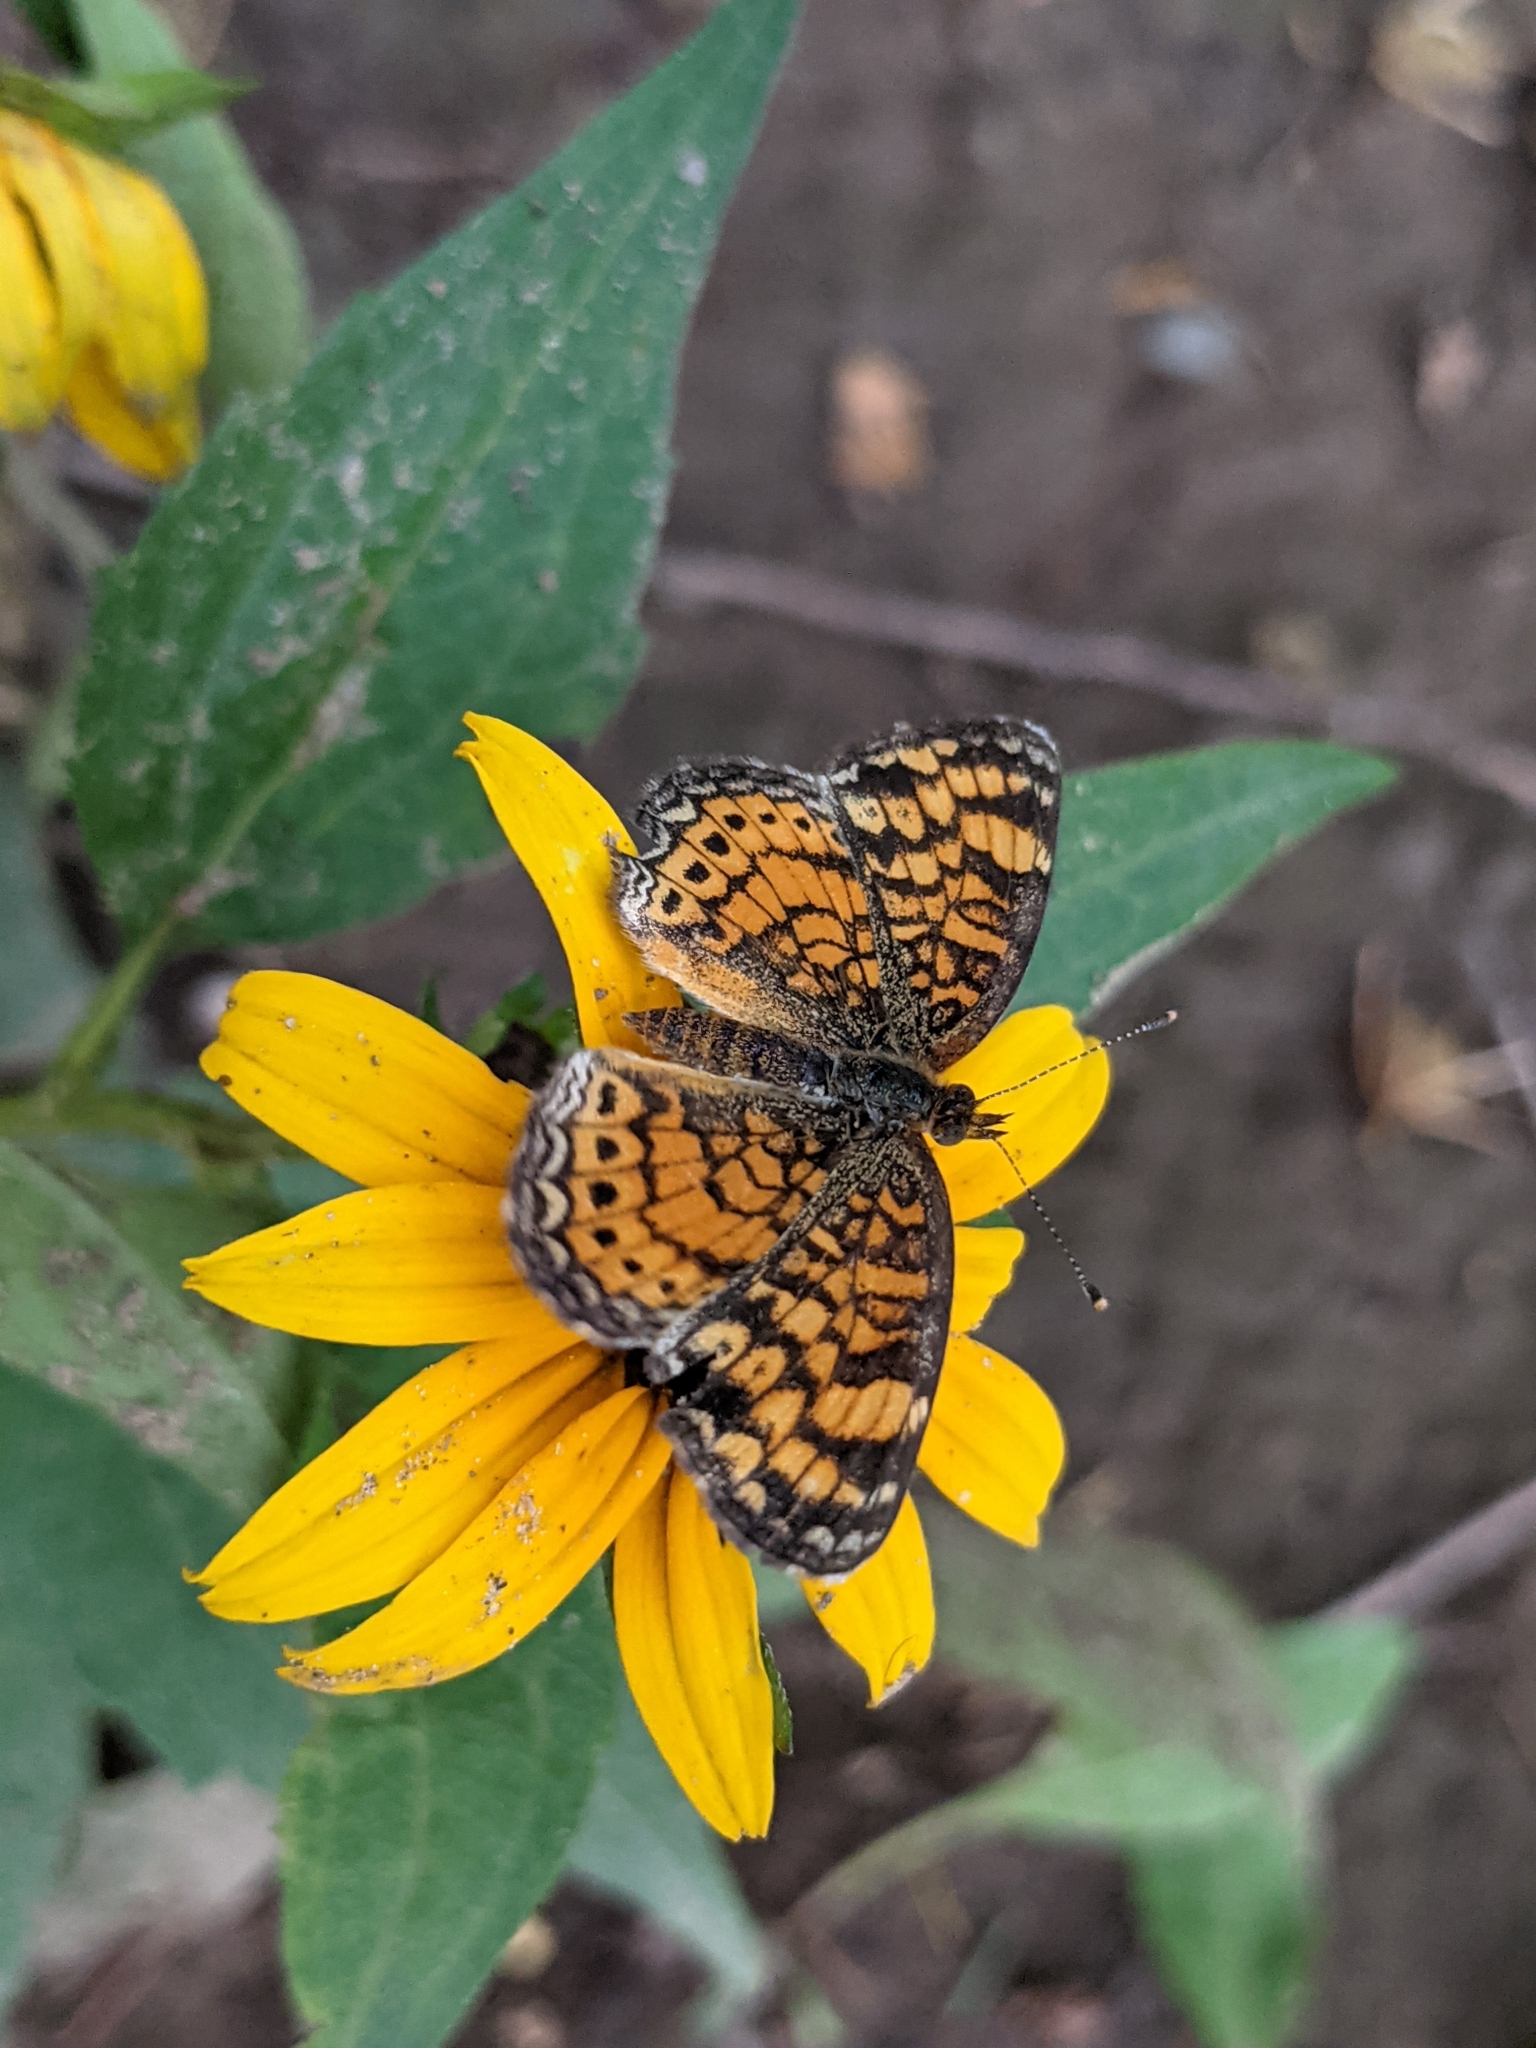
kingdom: Animalia
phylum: Arthropoda
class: Insecta
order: Lepidoptera
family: Nymphalidae
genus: Phyciodes
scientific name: Phyciodes tharos
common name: Pearl crescent
